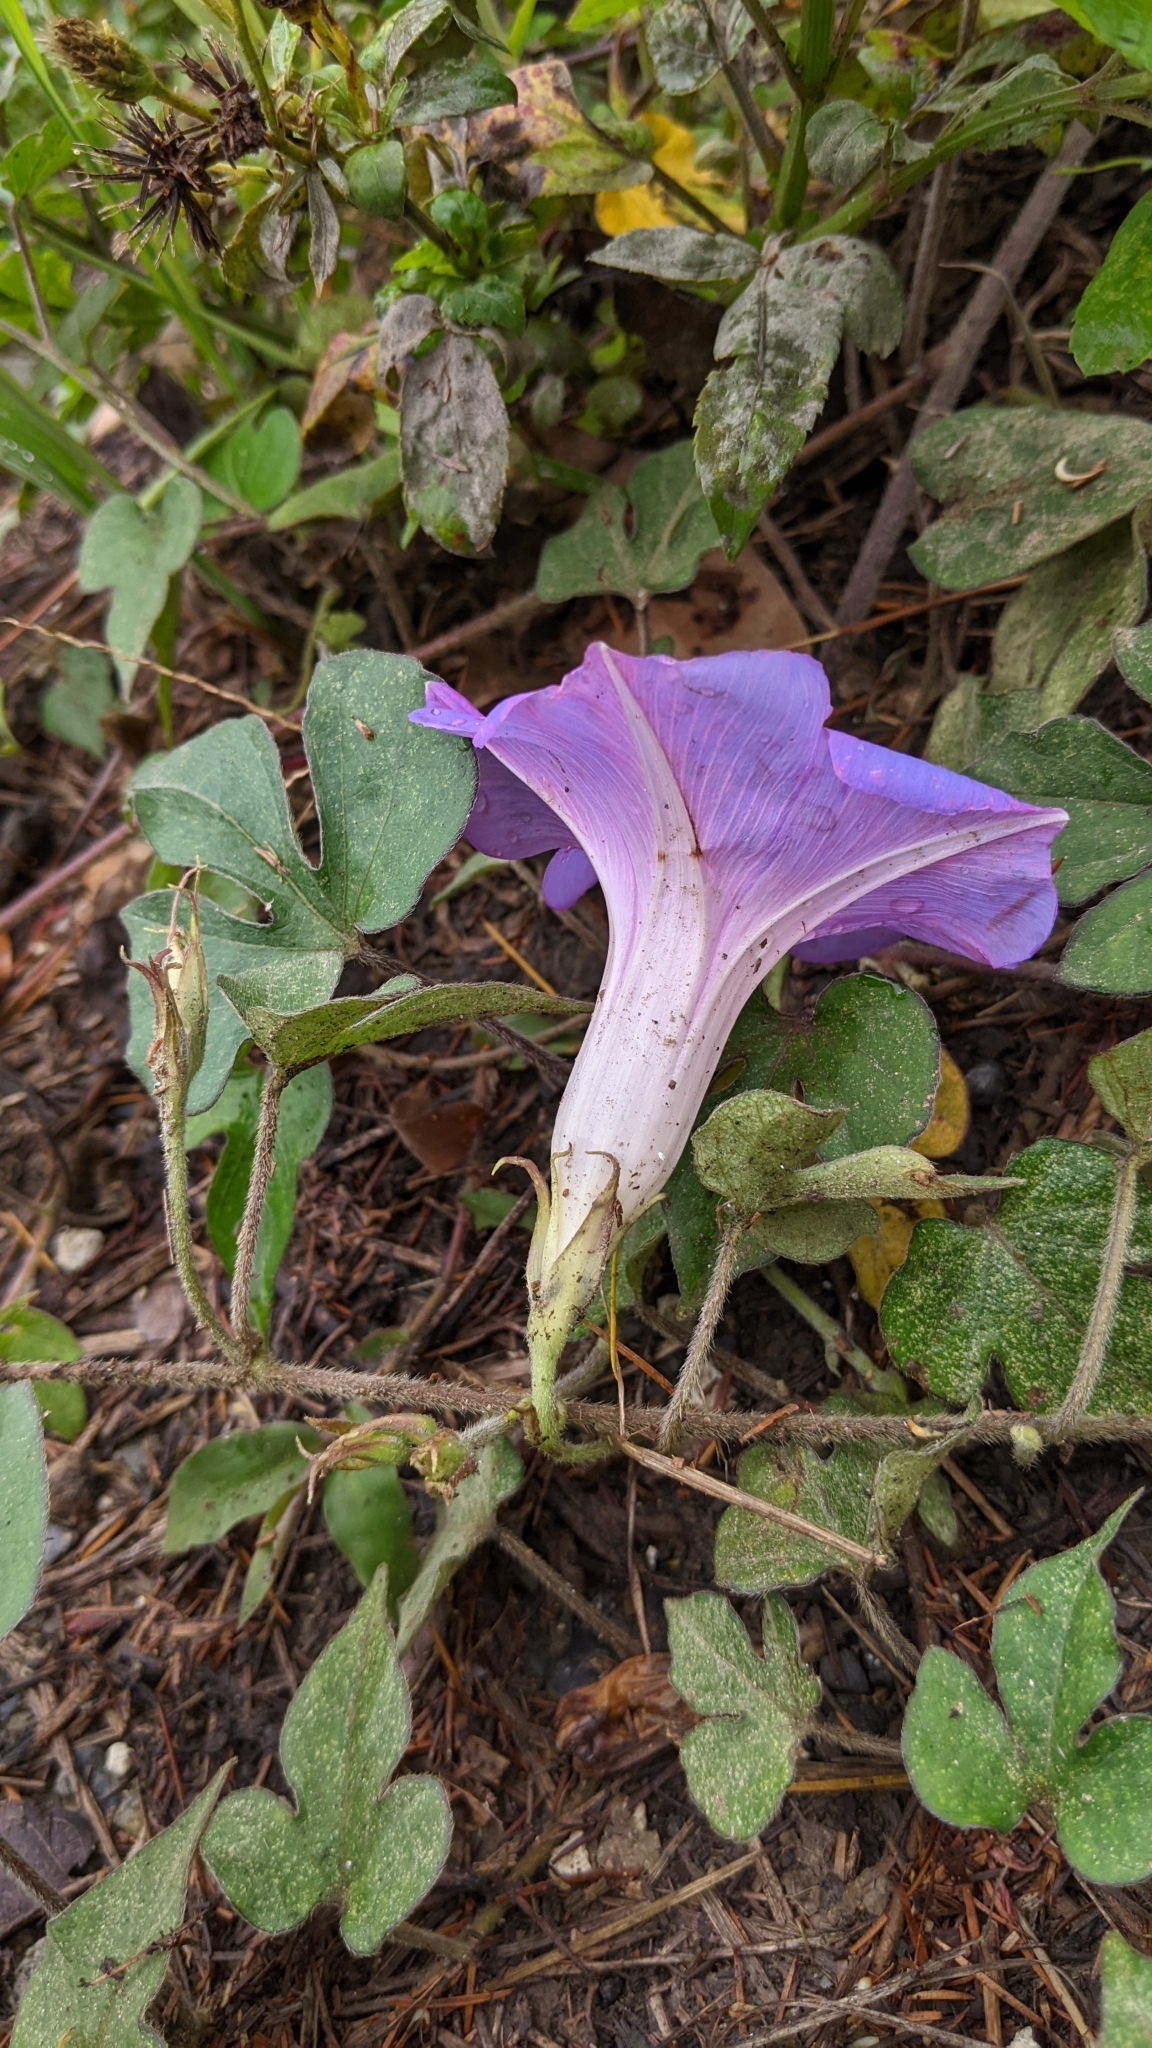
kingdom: Plantae
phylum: Tracheophyta
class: Magnoliopsida
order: Solanales
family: Convolvulaceae
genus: Ipomoea
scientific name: Ipomoea indica
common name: Blue dawnflower
